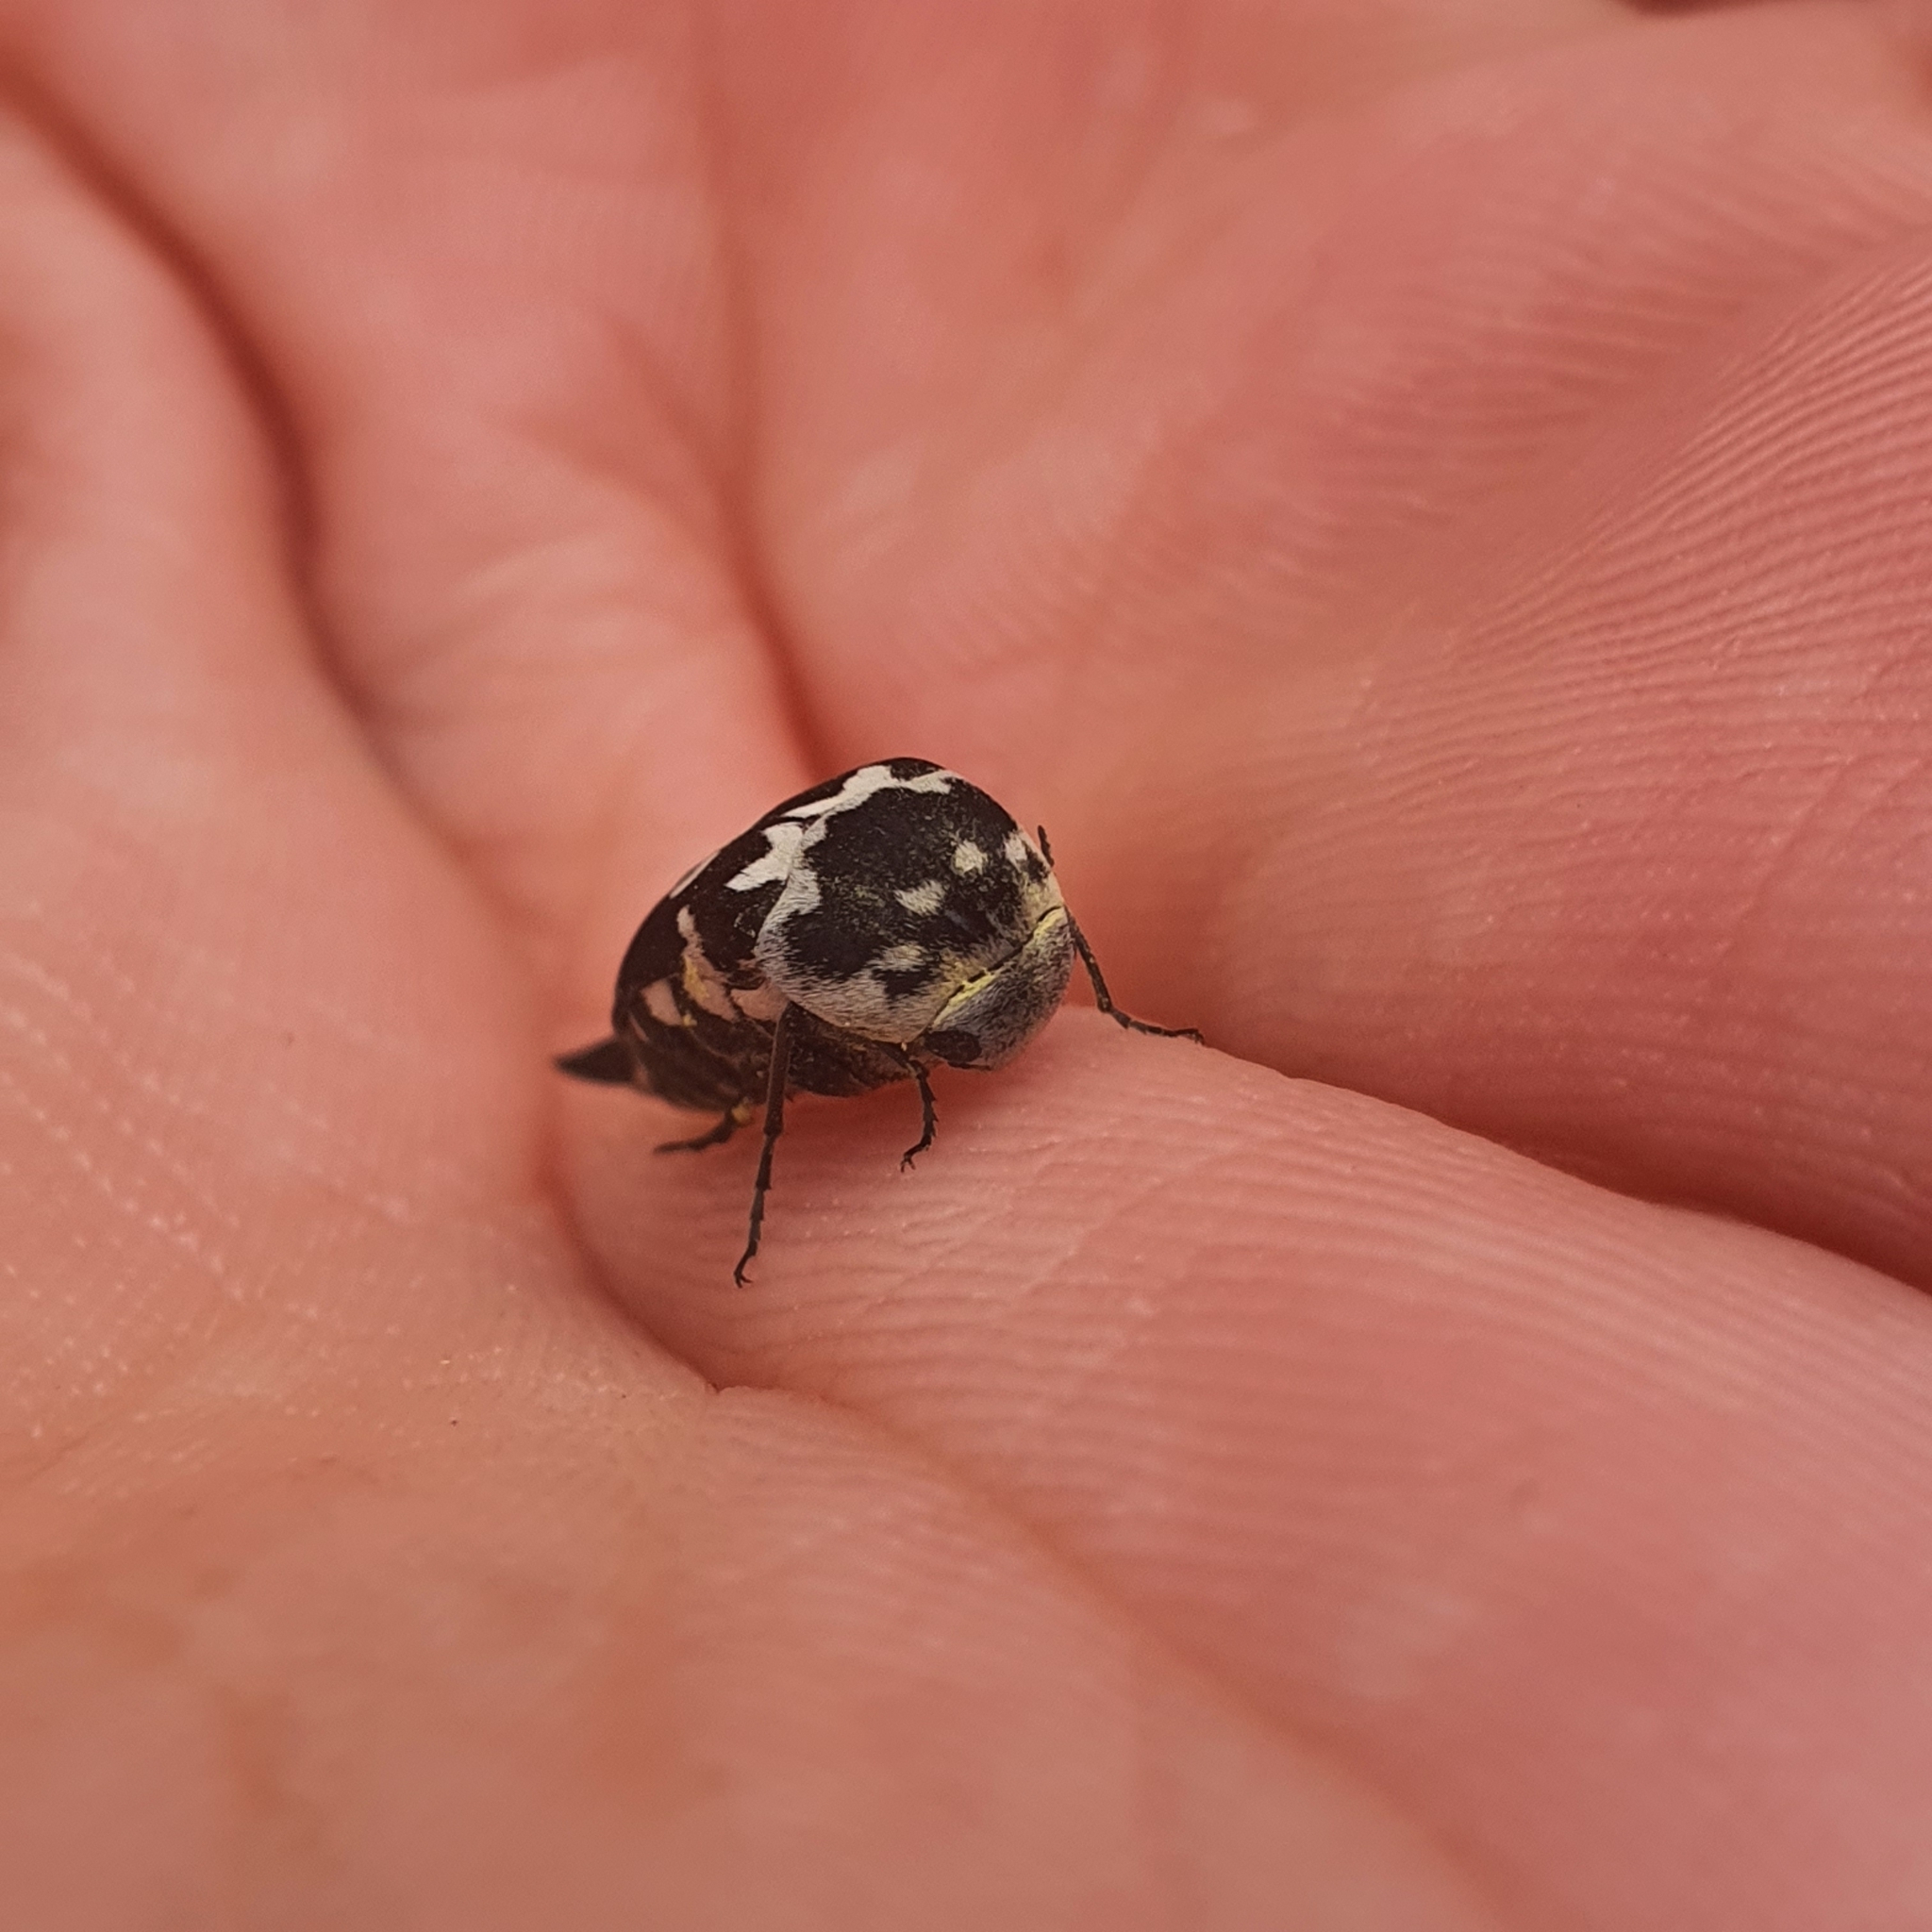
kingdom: Animalia
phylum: Arthropoda
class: Insecta
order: Coleoptera
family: Mordellidae
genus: Hoshihananomia
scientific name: Hoshihananomia
